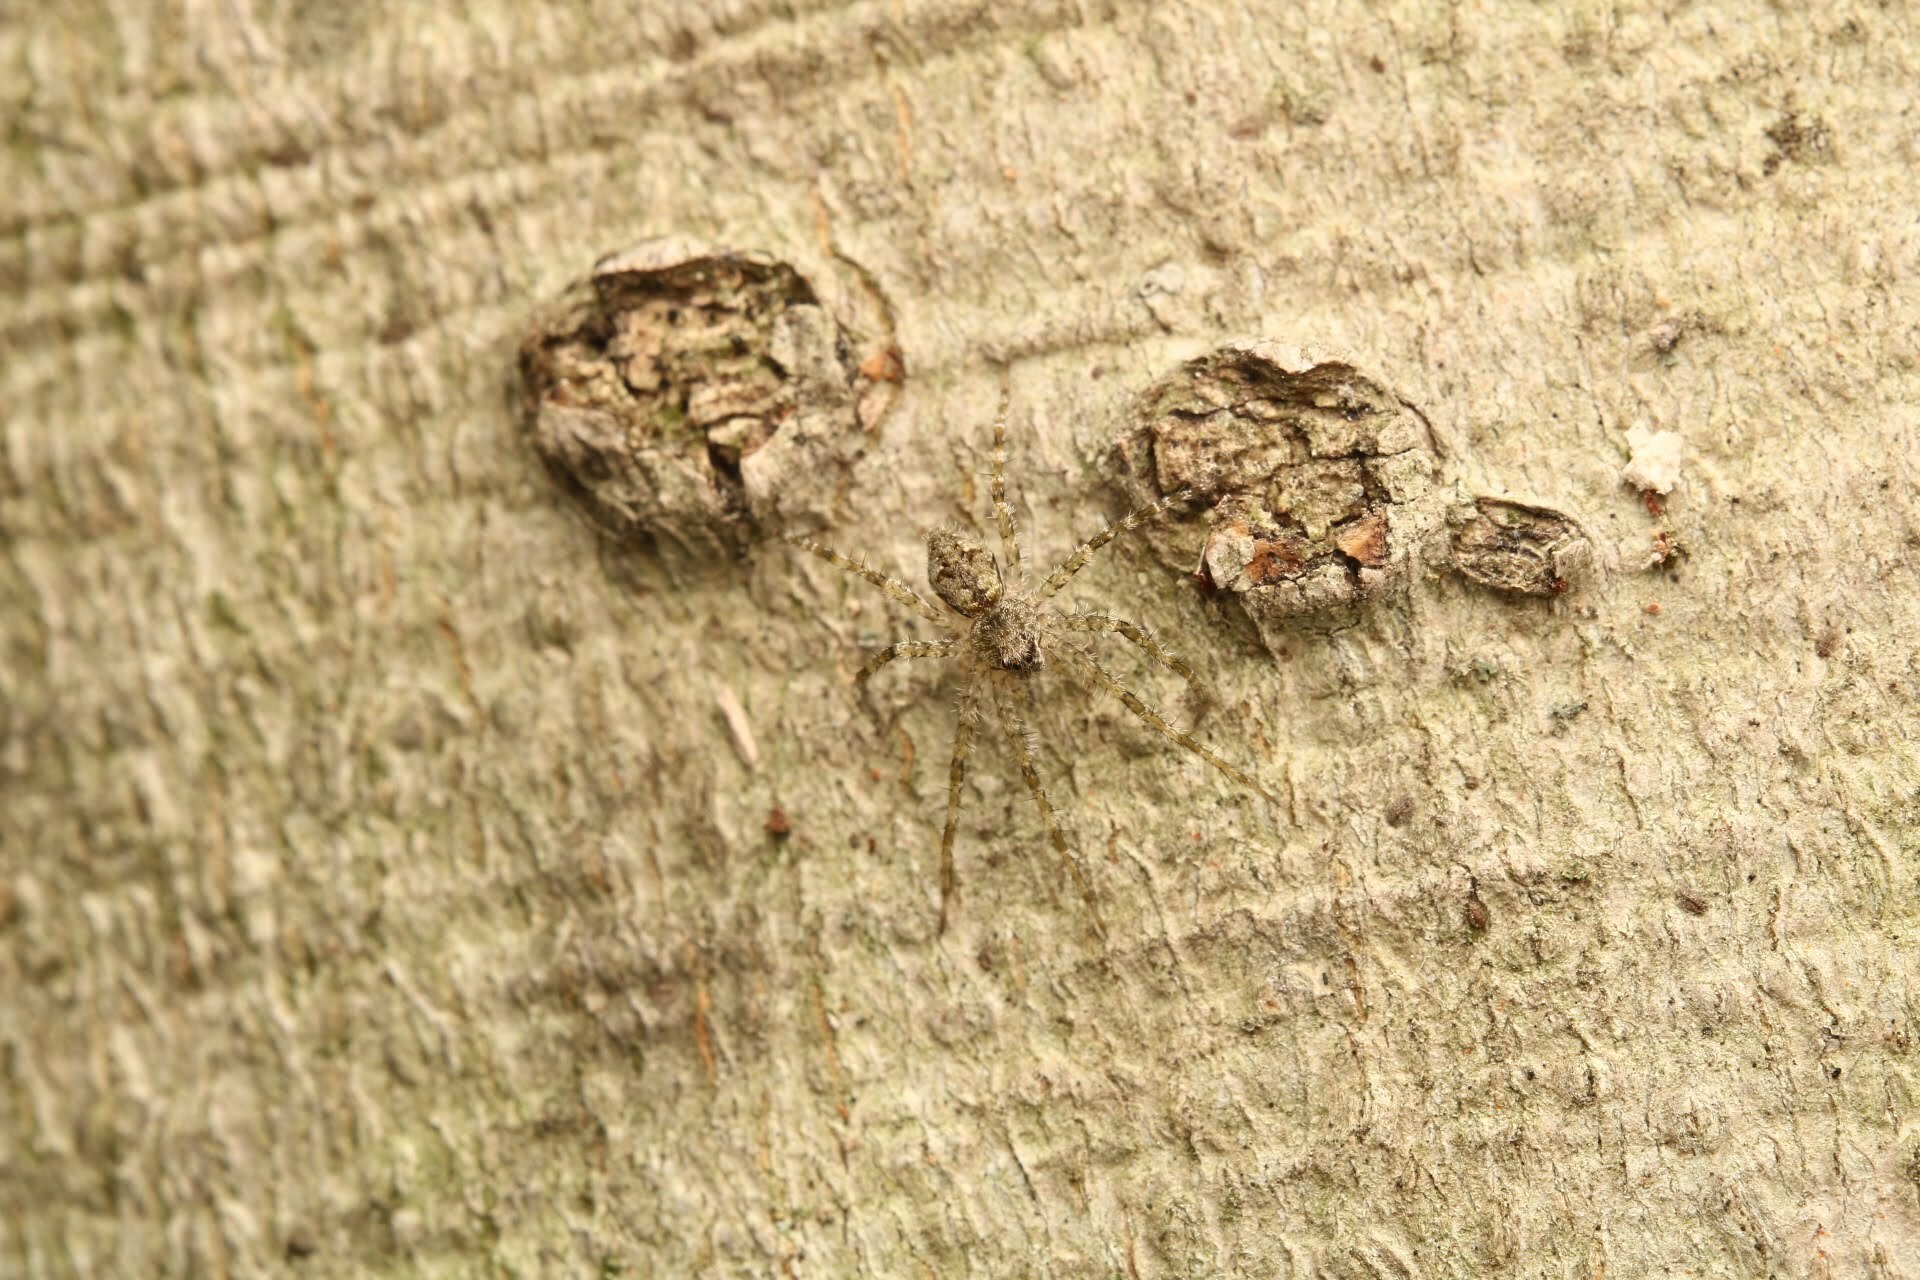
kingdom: Animalia
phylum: Arthropoda
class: Arachnida
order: Araneae
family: Pisauridae
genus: Dolomedes
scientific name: Dolomedes albineus
